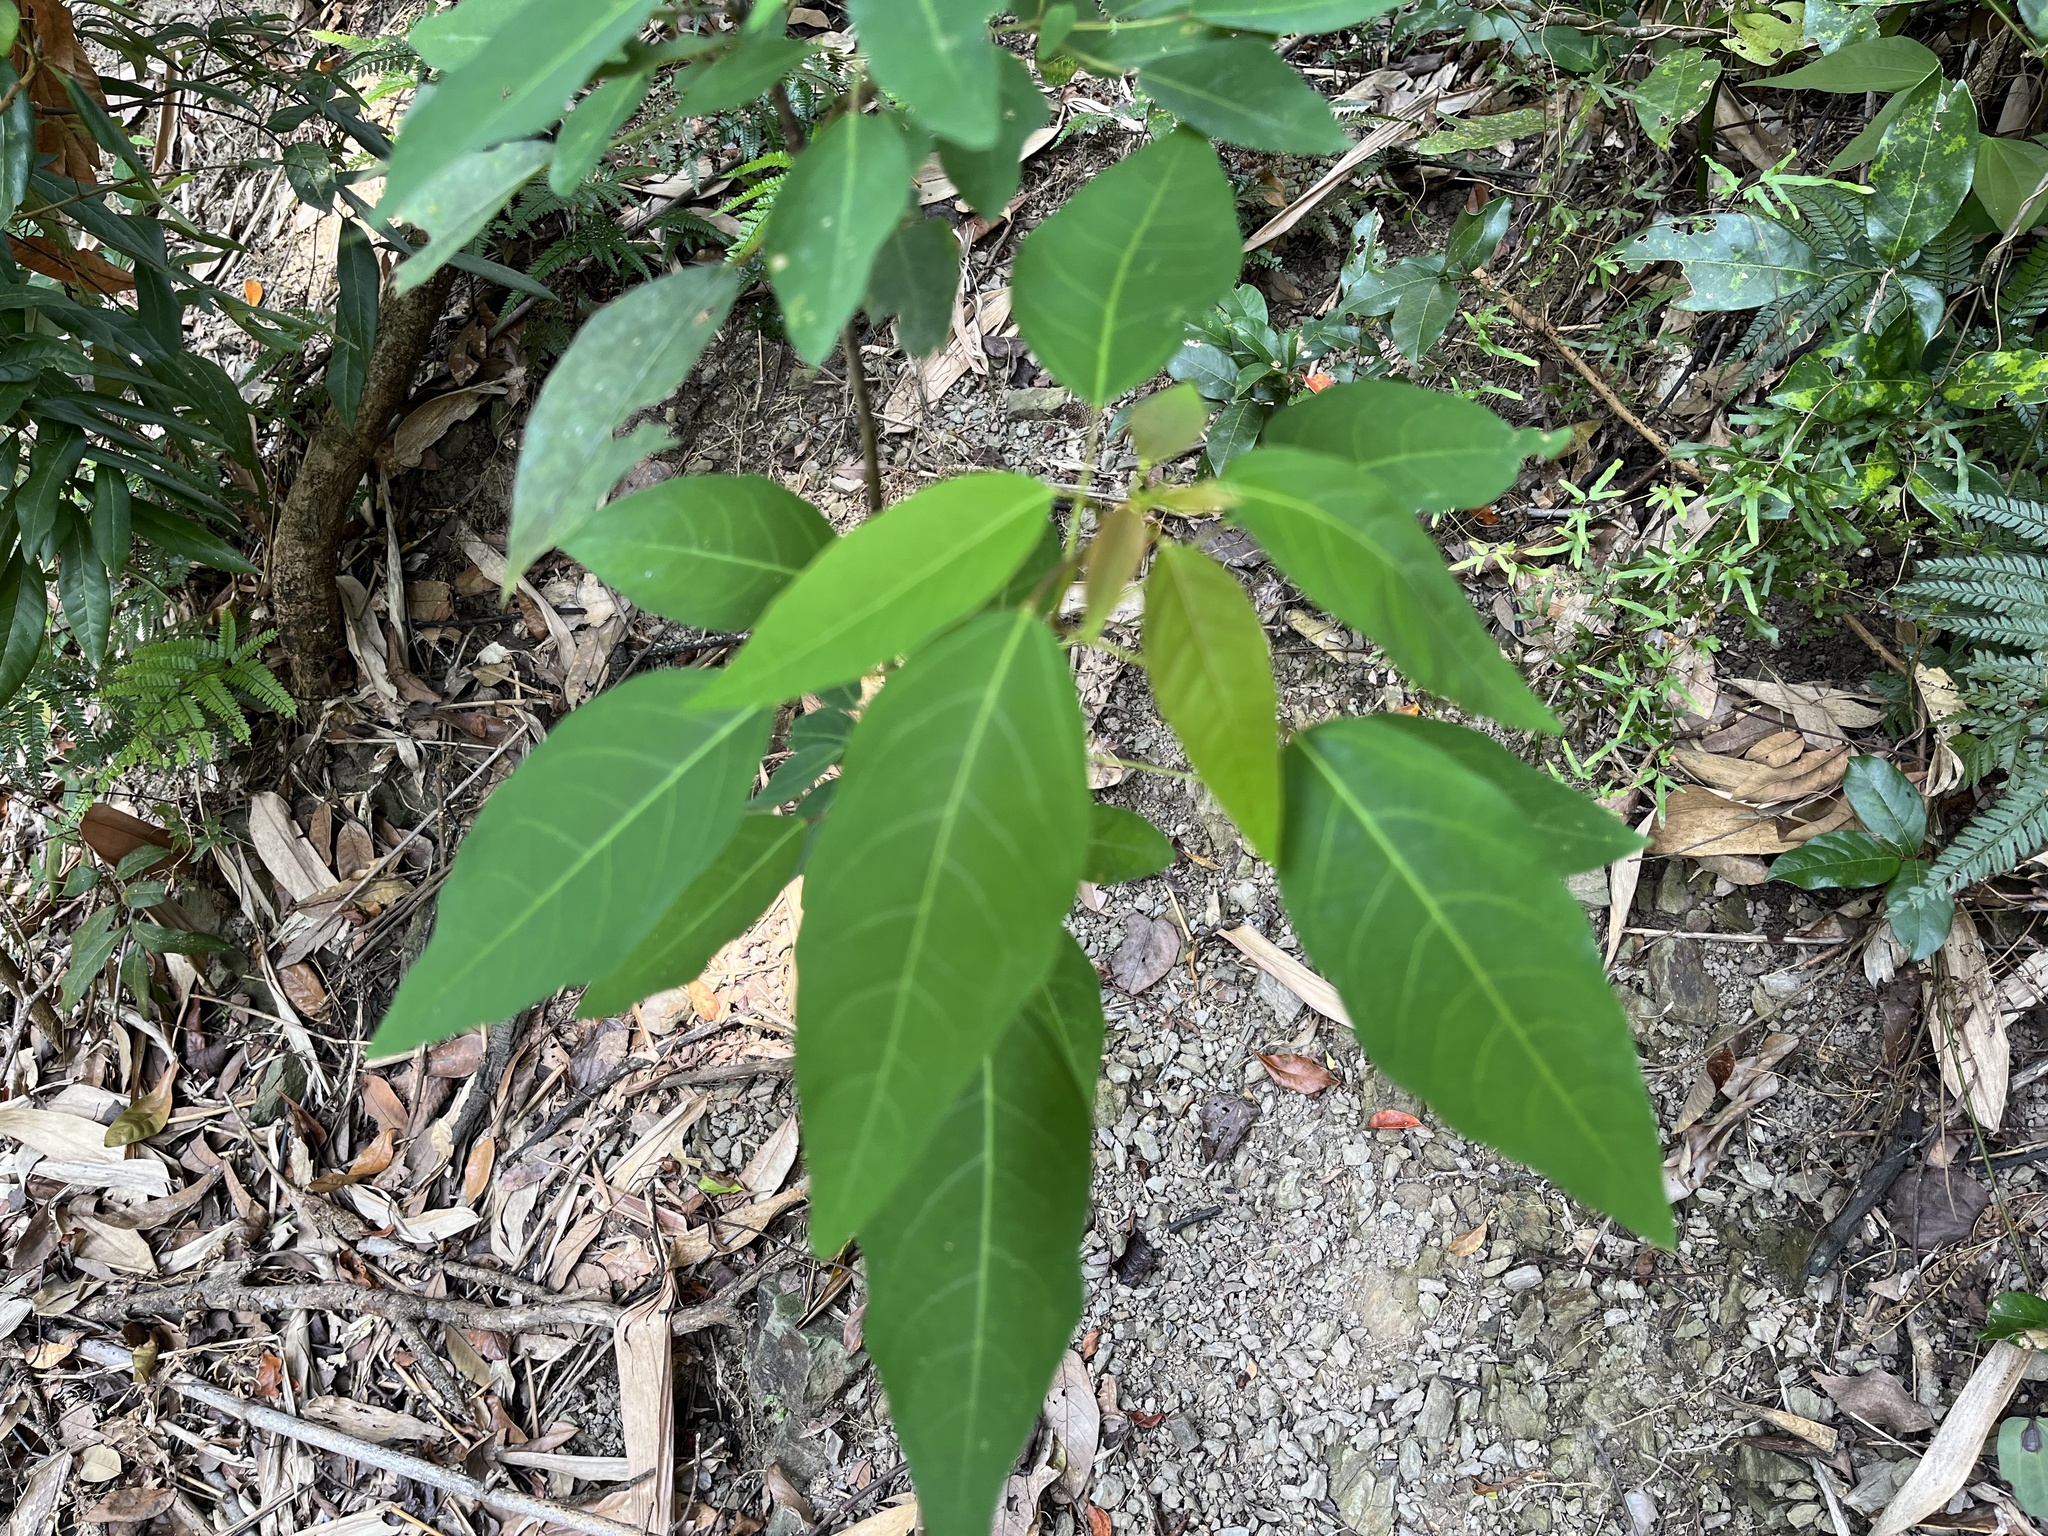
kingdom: Plantae
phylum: Tracheophyta
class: Magnoliopsida
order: Malpighiales
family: Euphorbiaceae
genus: Triadica
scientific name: Triadica cochinchinensis
